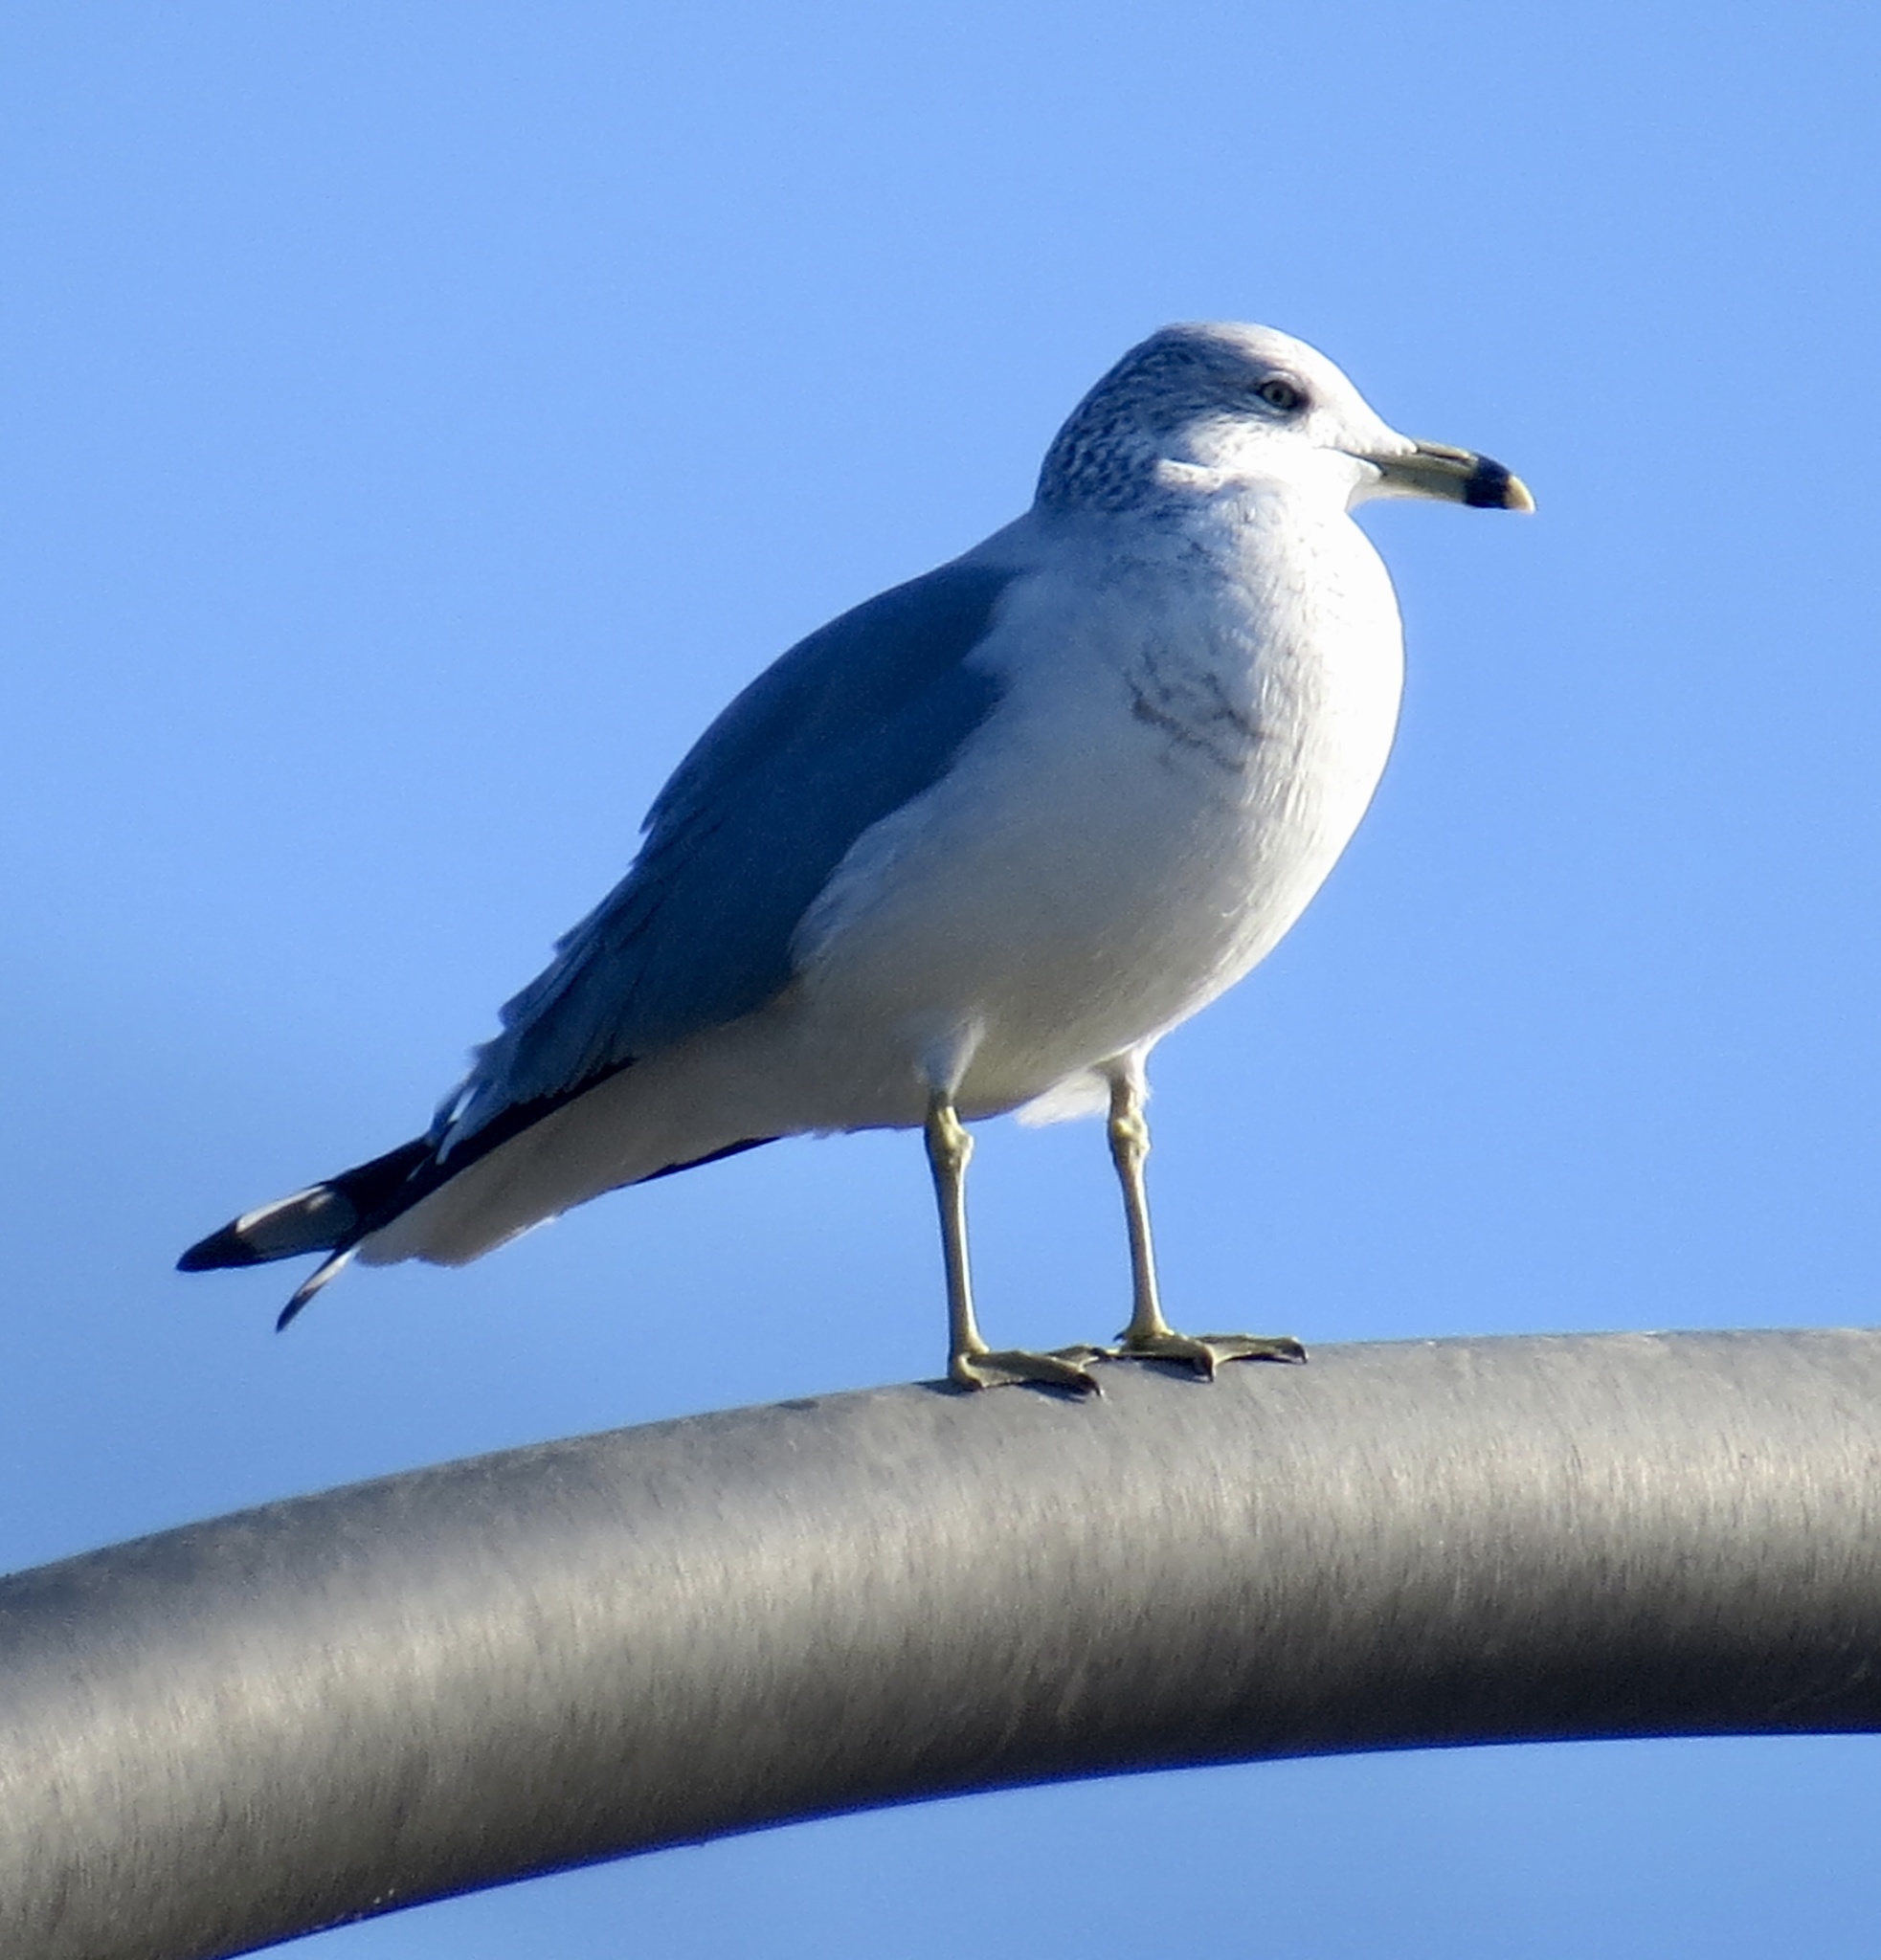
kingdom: Animalia
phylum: Chordata
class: Aves
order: Charadriiformes
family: Laridae
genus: Larus
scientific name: Larus delawarensis
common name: Ring-billed gull
